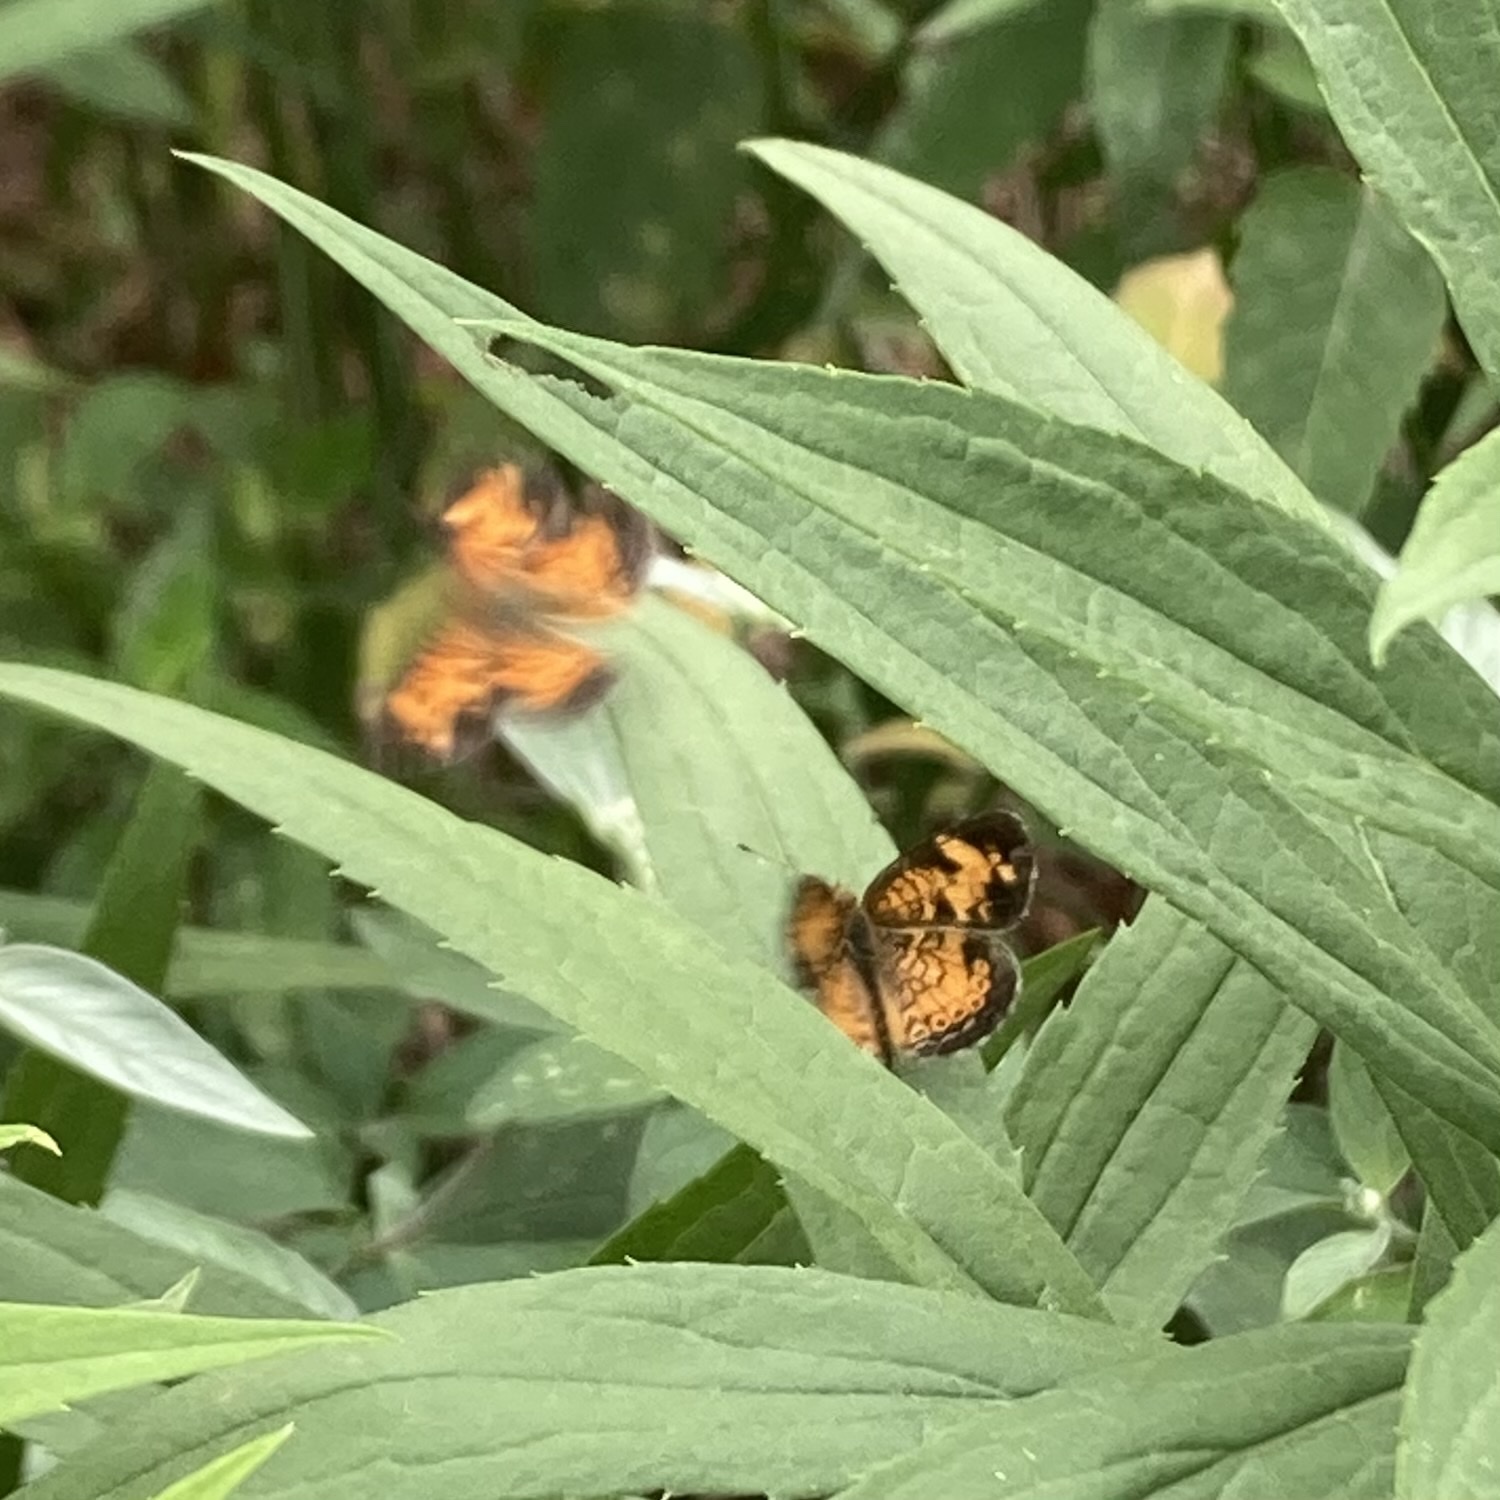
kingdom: Animalia
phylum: Arthropoda
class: Insecta
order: Lepidoptera
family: Nymphalidae
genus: Phyciodes
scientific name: Phyciodes tharos
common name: Pearl crescent
